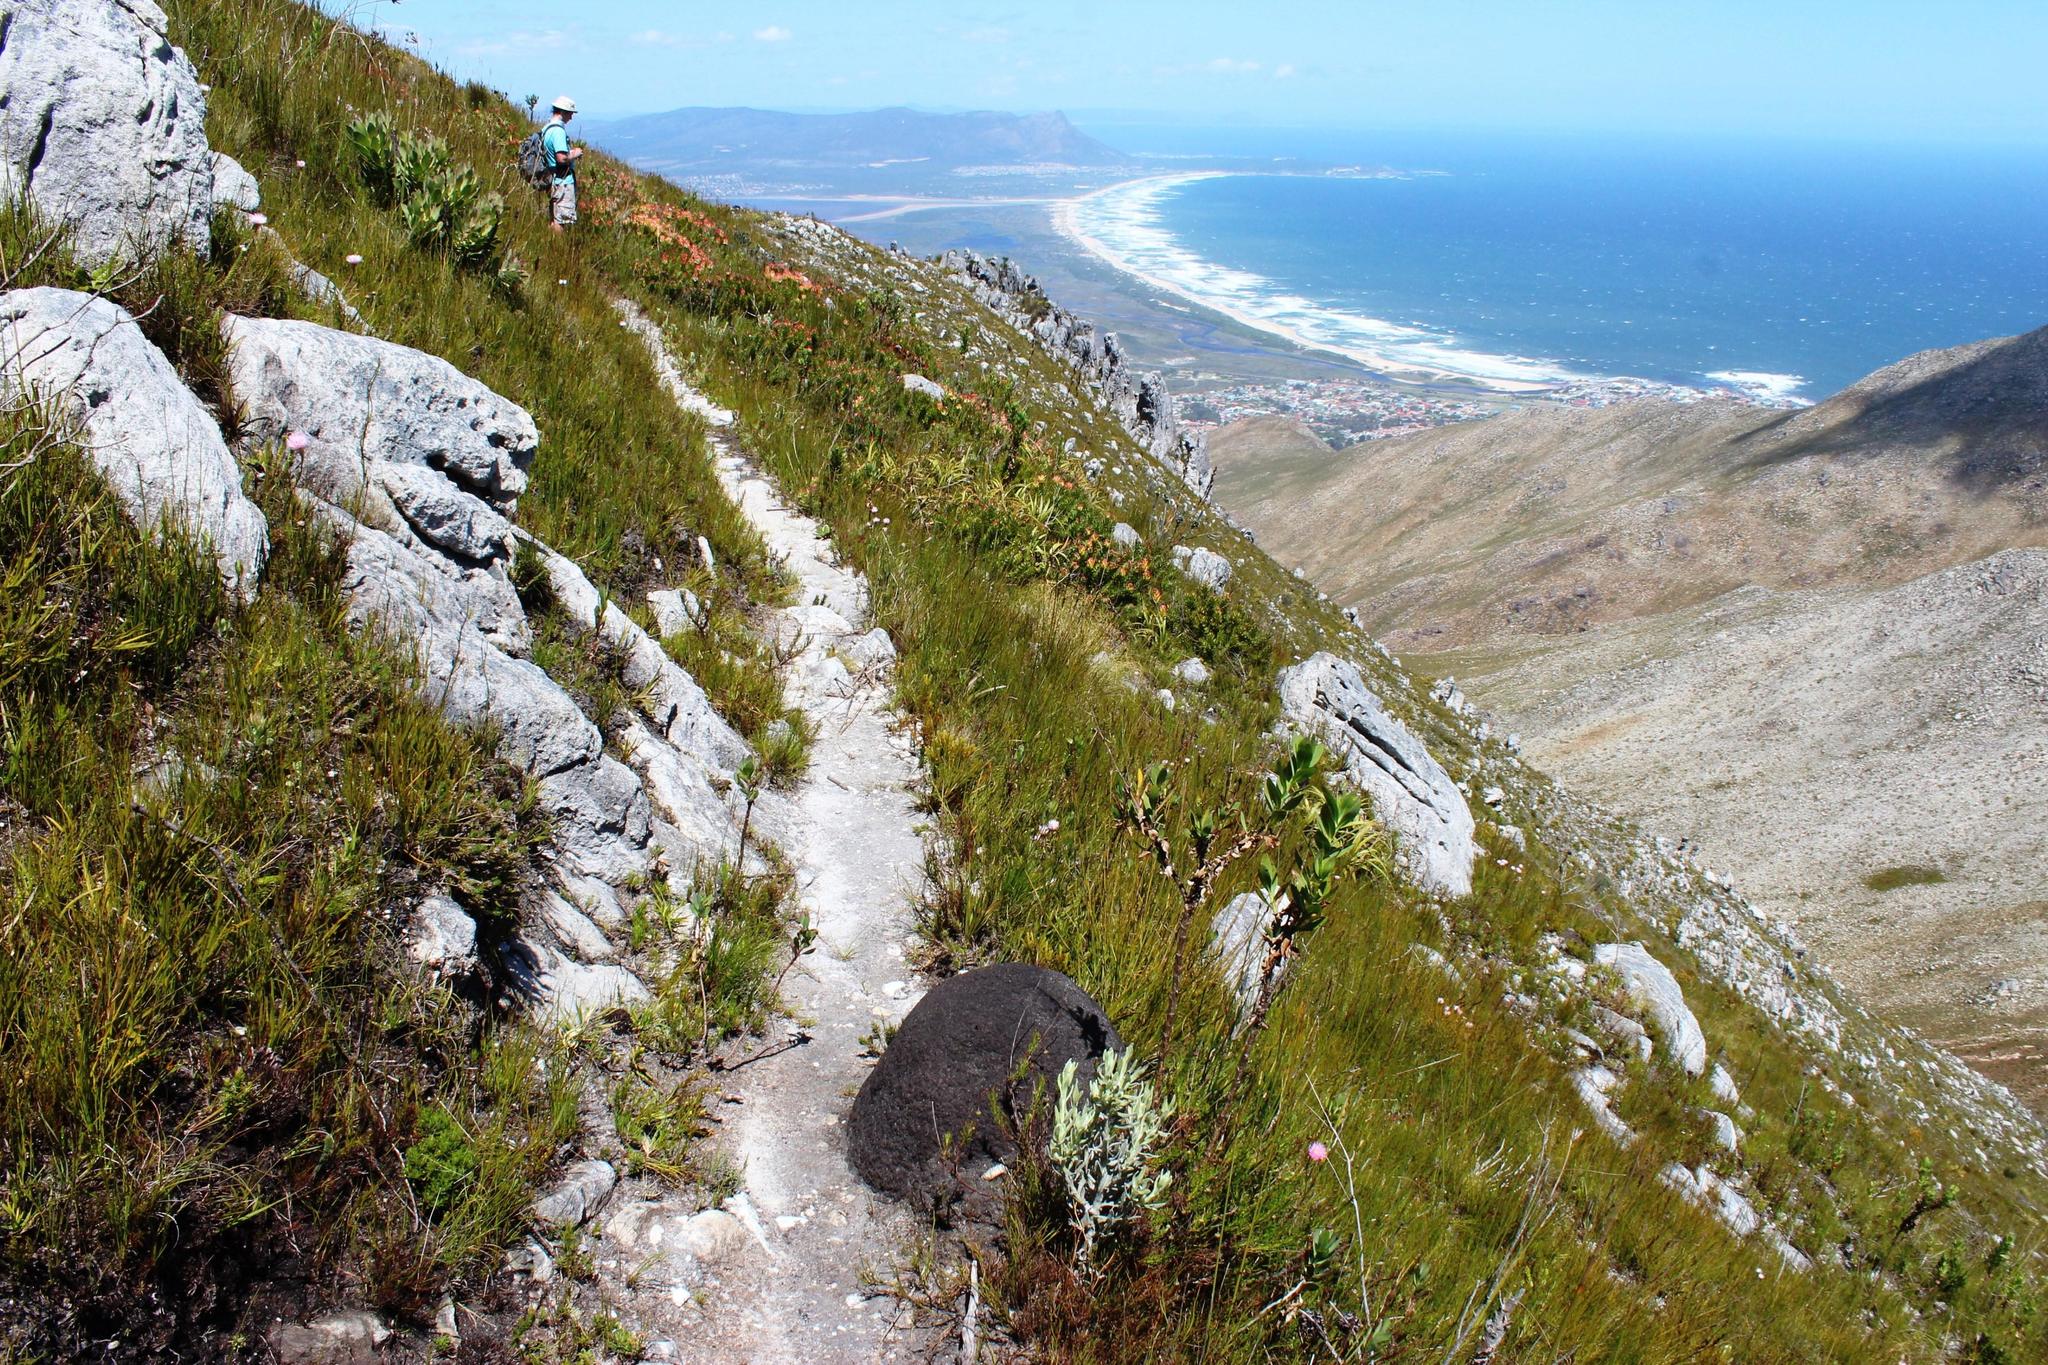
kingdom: Animalia
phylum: Arthropoda
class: Insecta
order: Blattodea
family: Termitidae
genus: Amitermes
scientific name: Amitermes hastatus
